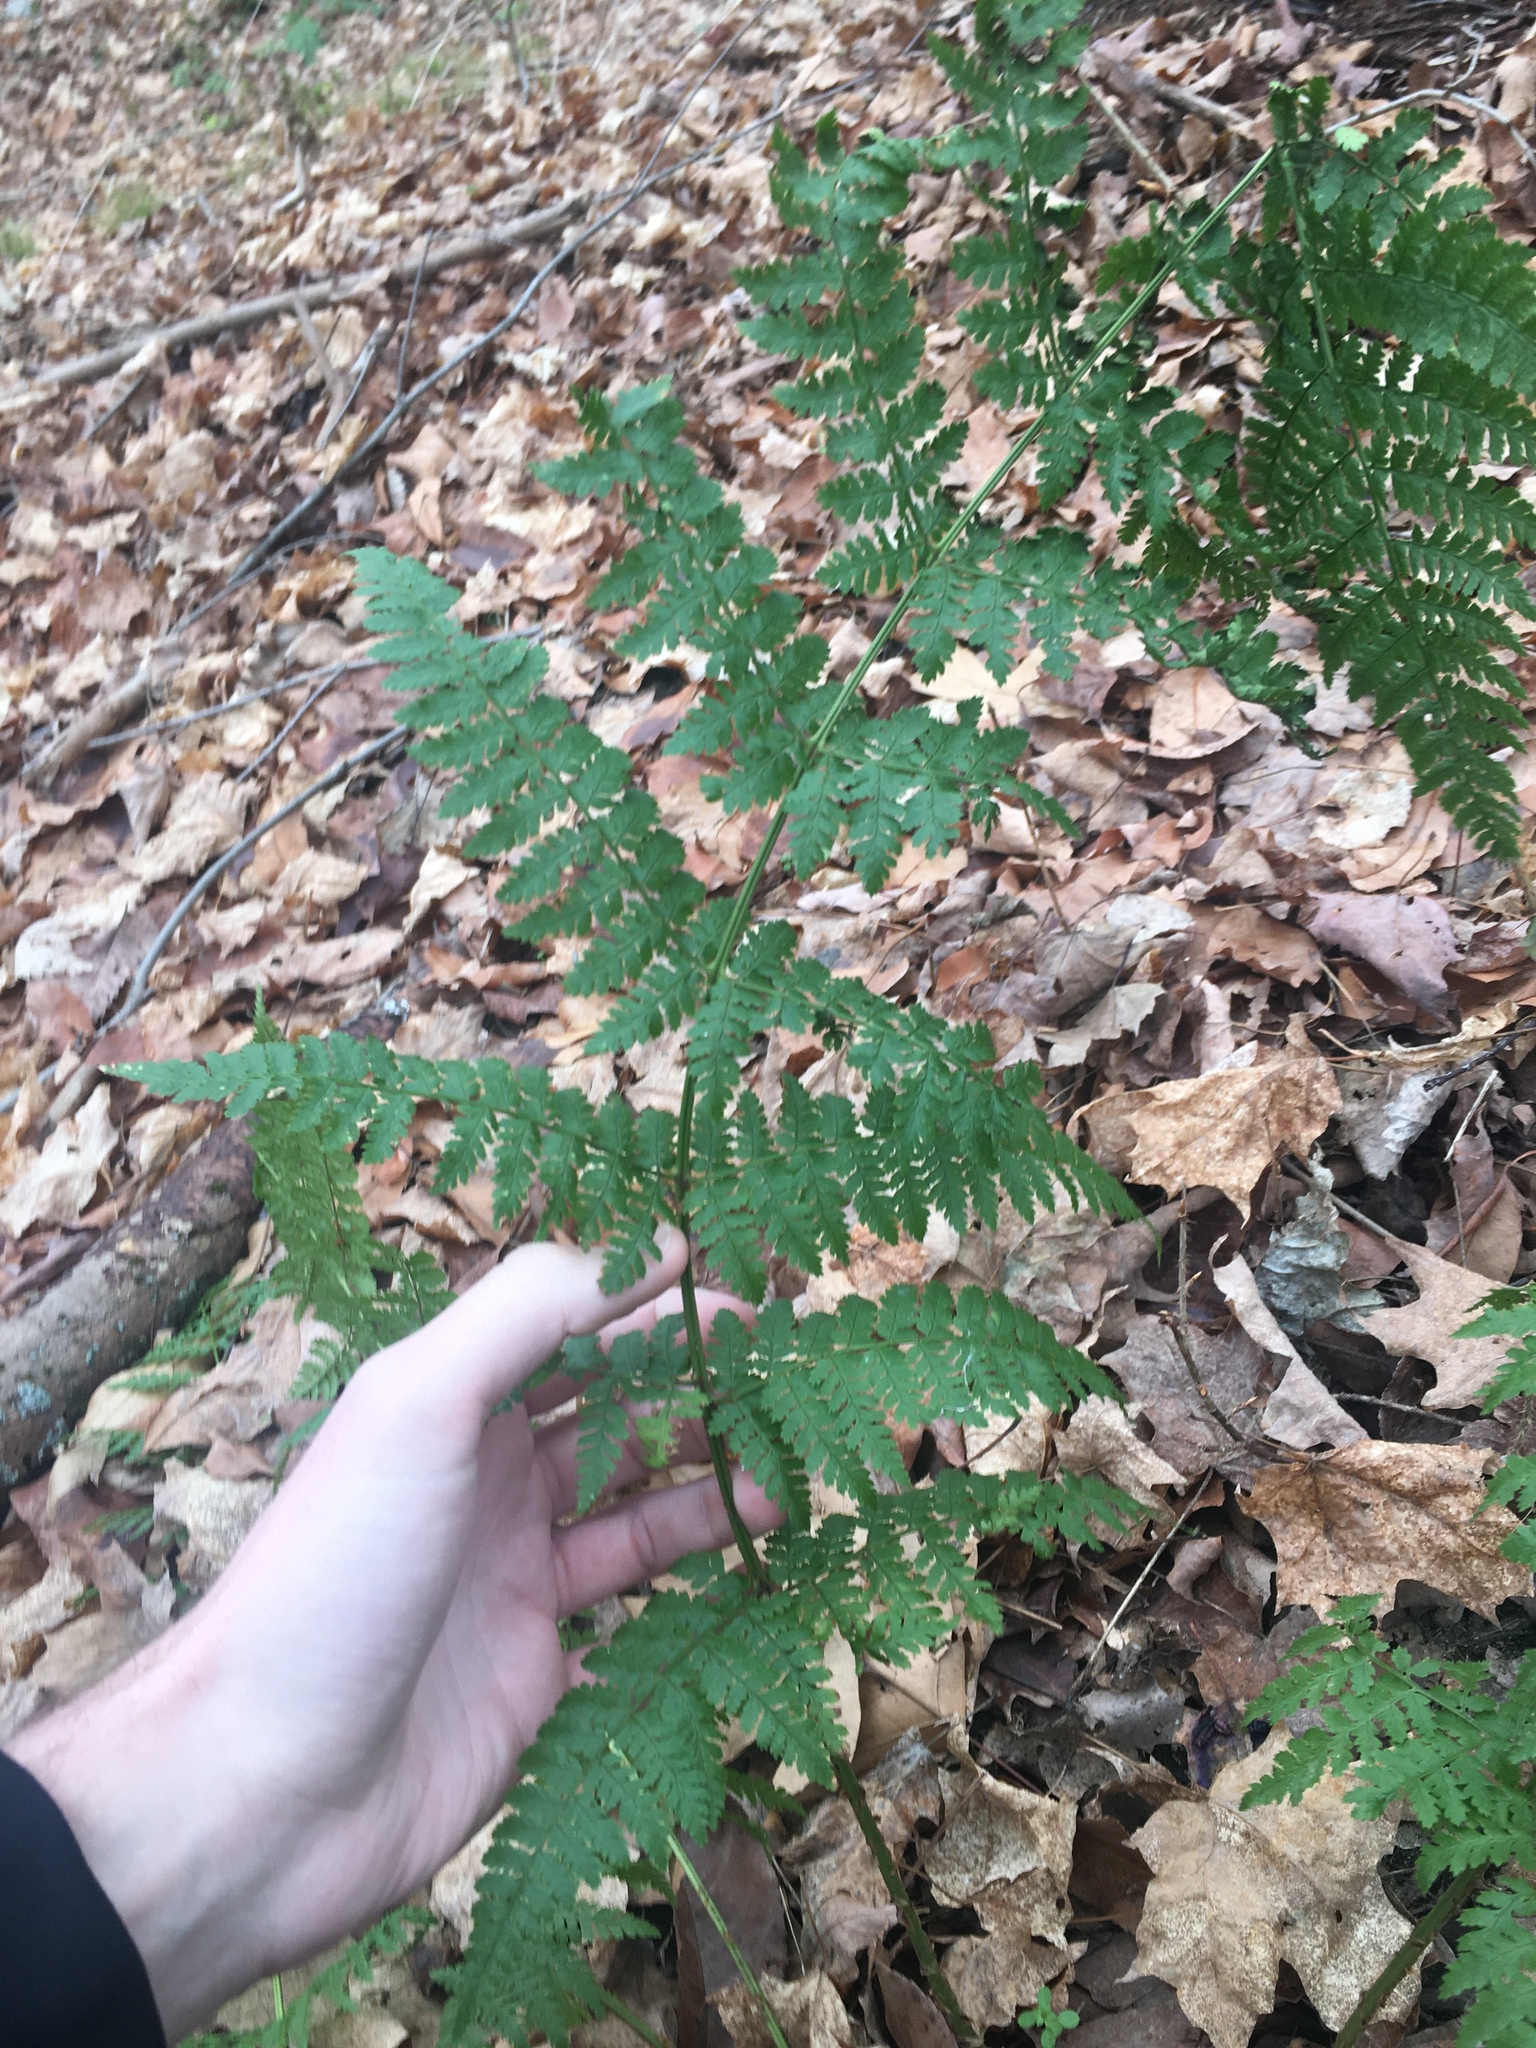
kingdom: Plantae
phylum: Tracheophyta
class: Polypodiopsida
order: Polypodiales
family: Dryopteridaceae
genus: Dryopteris
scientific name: Dryopteris intermedia
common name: Evergreen wood fern
